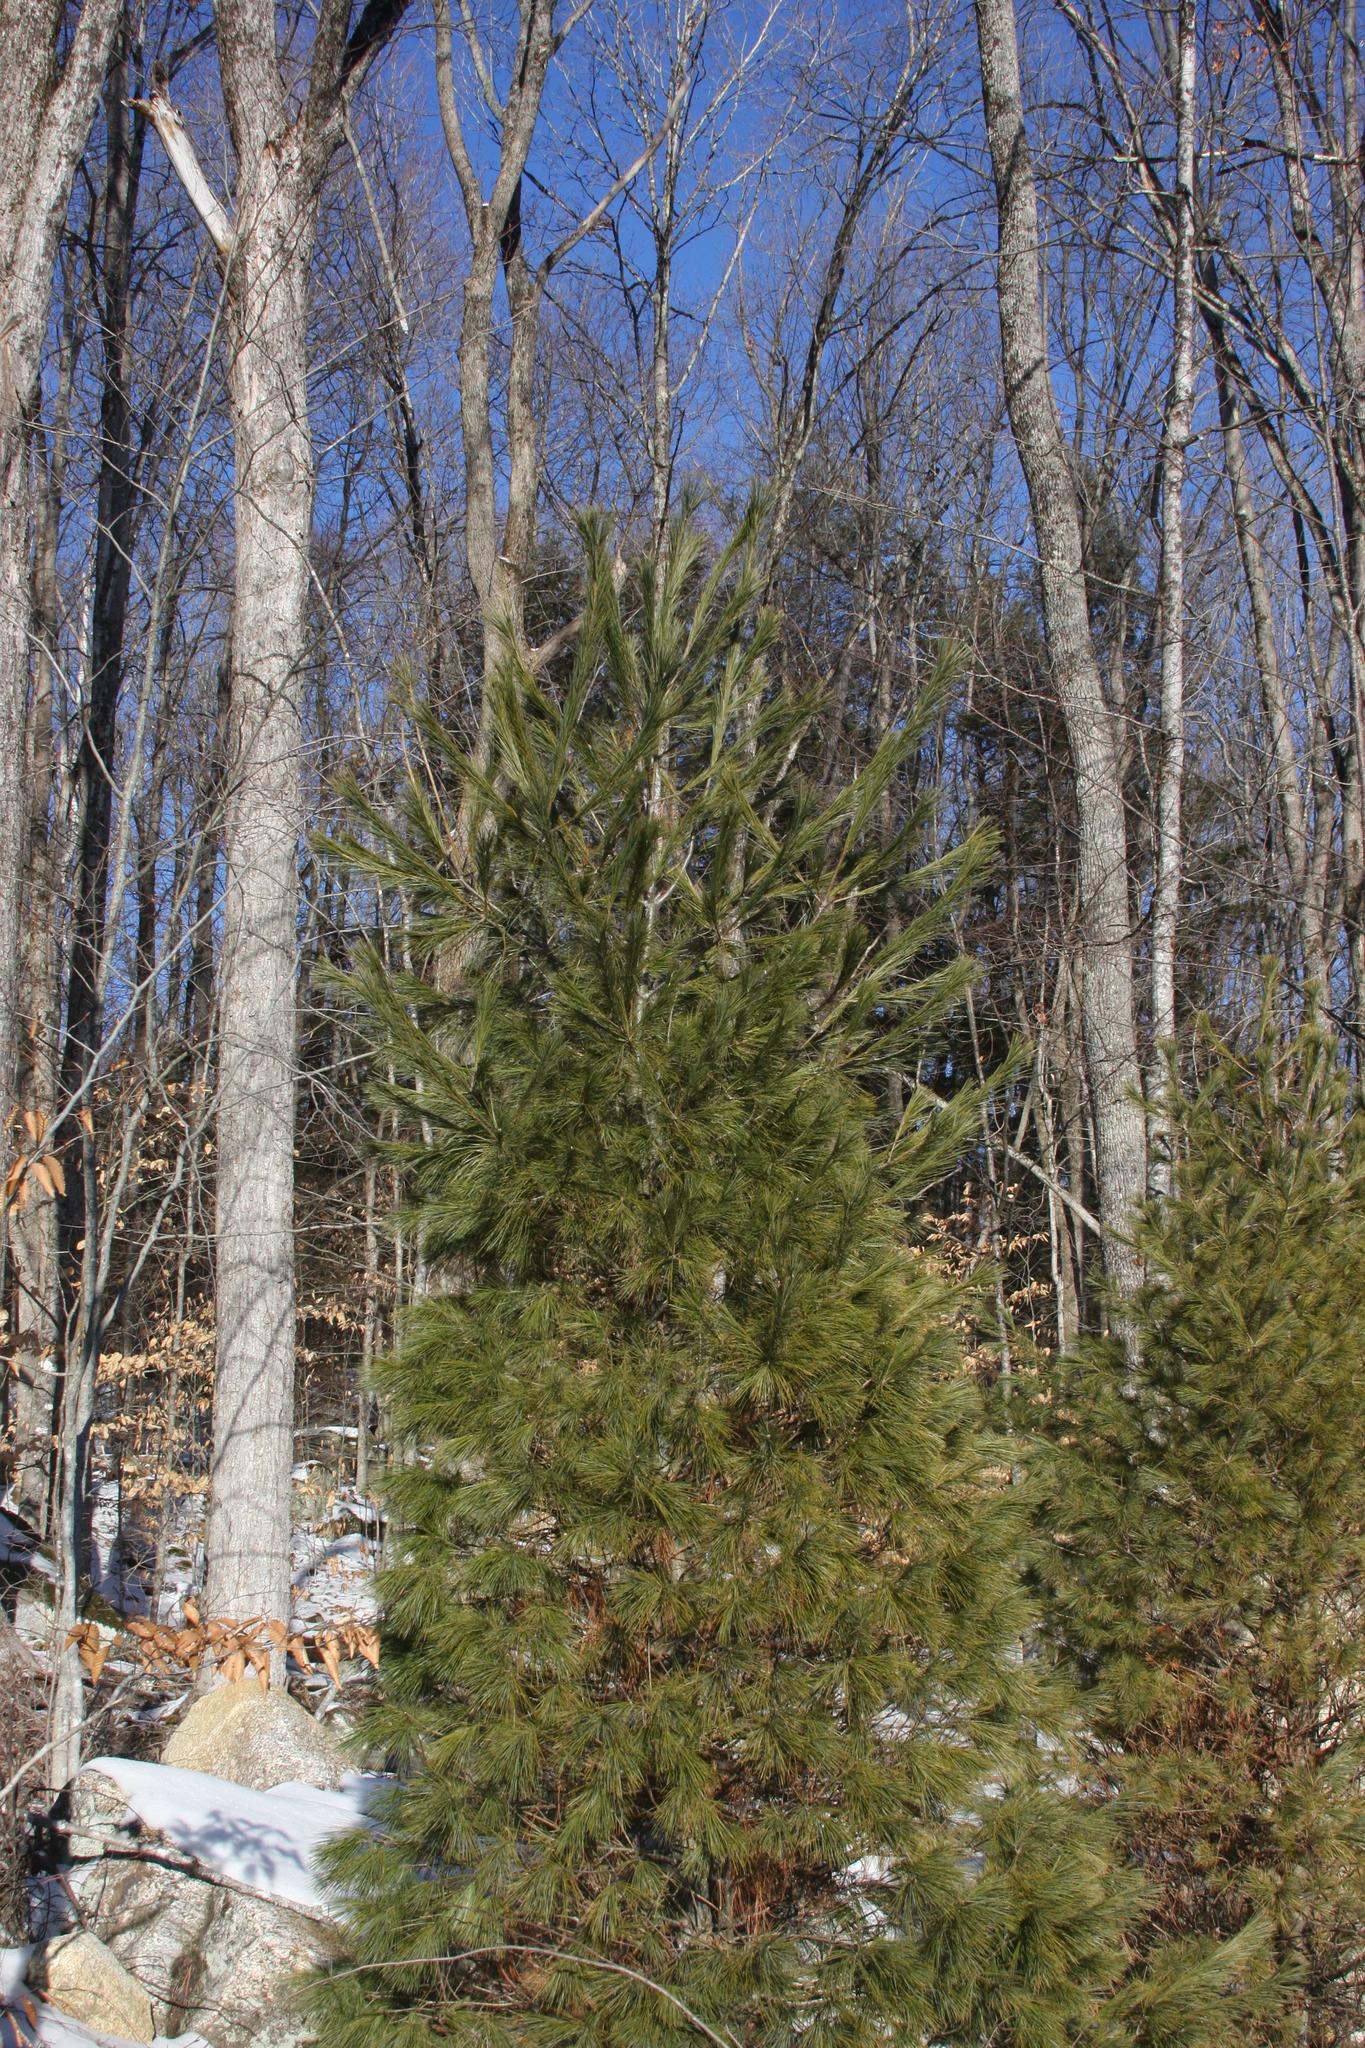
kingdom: Plantae
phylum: Tracheophyta
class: Pinopsida
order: Pinales
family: Pinaceae
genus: Pinus
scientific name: Pinus strobus
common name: Weymouth pine
